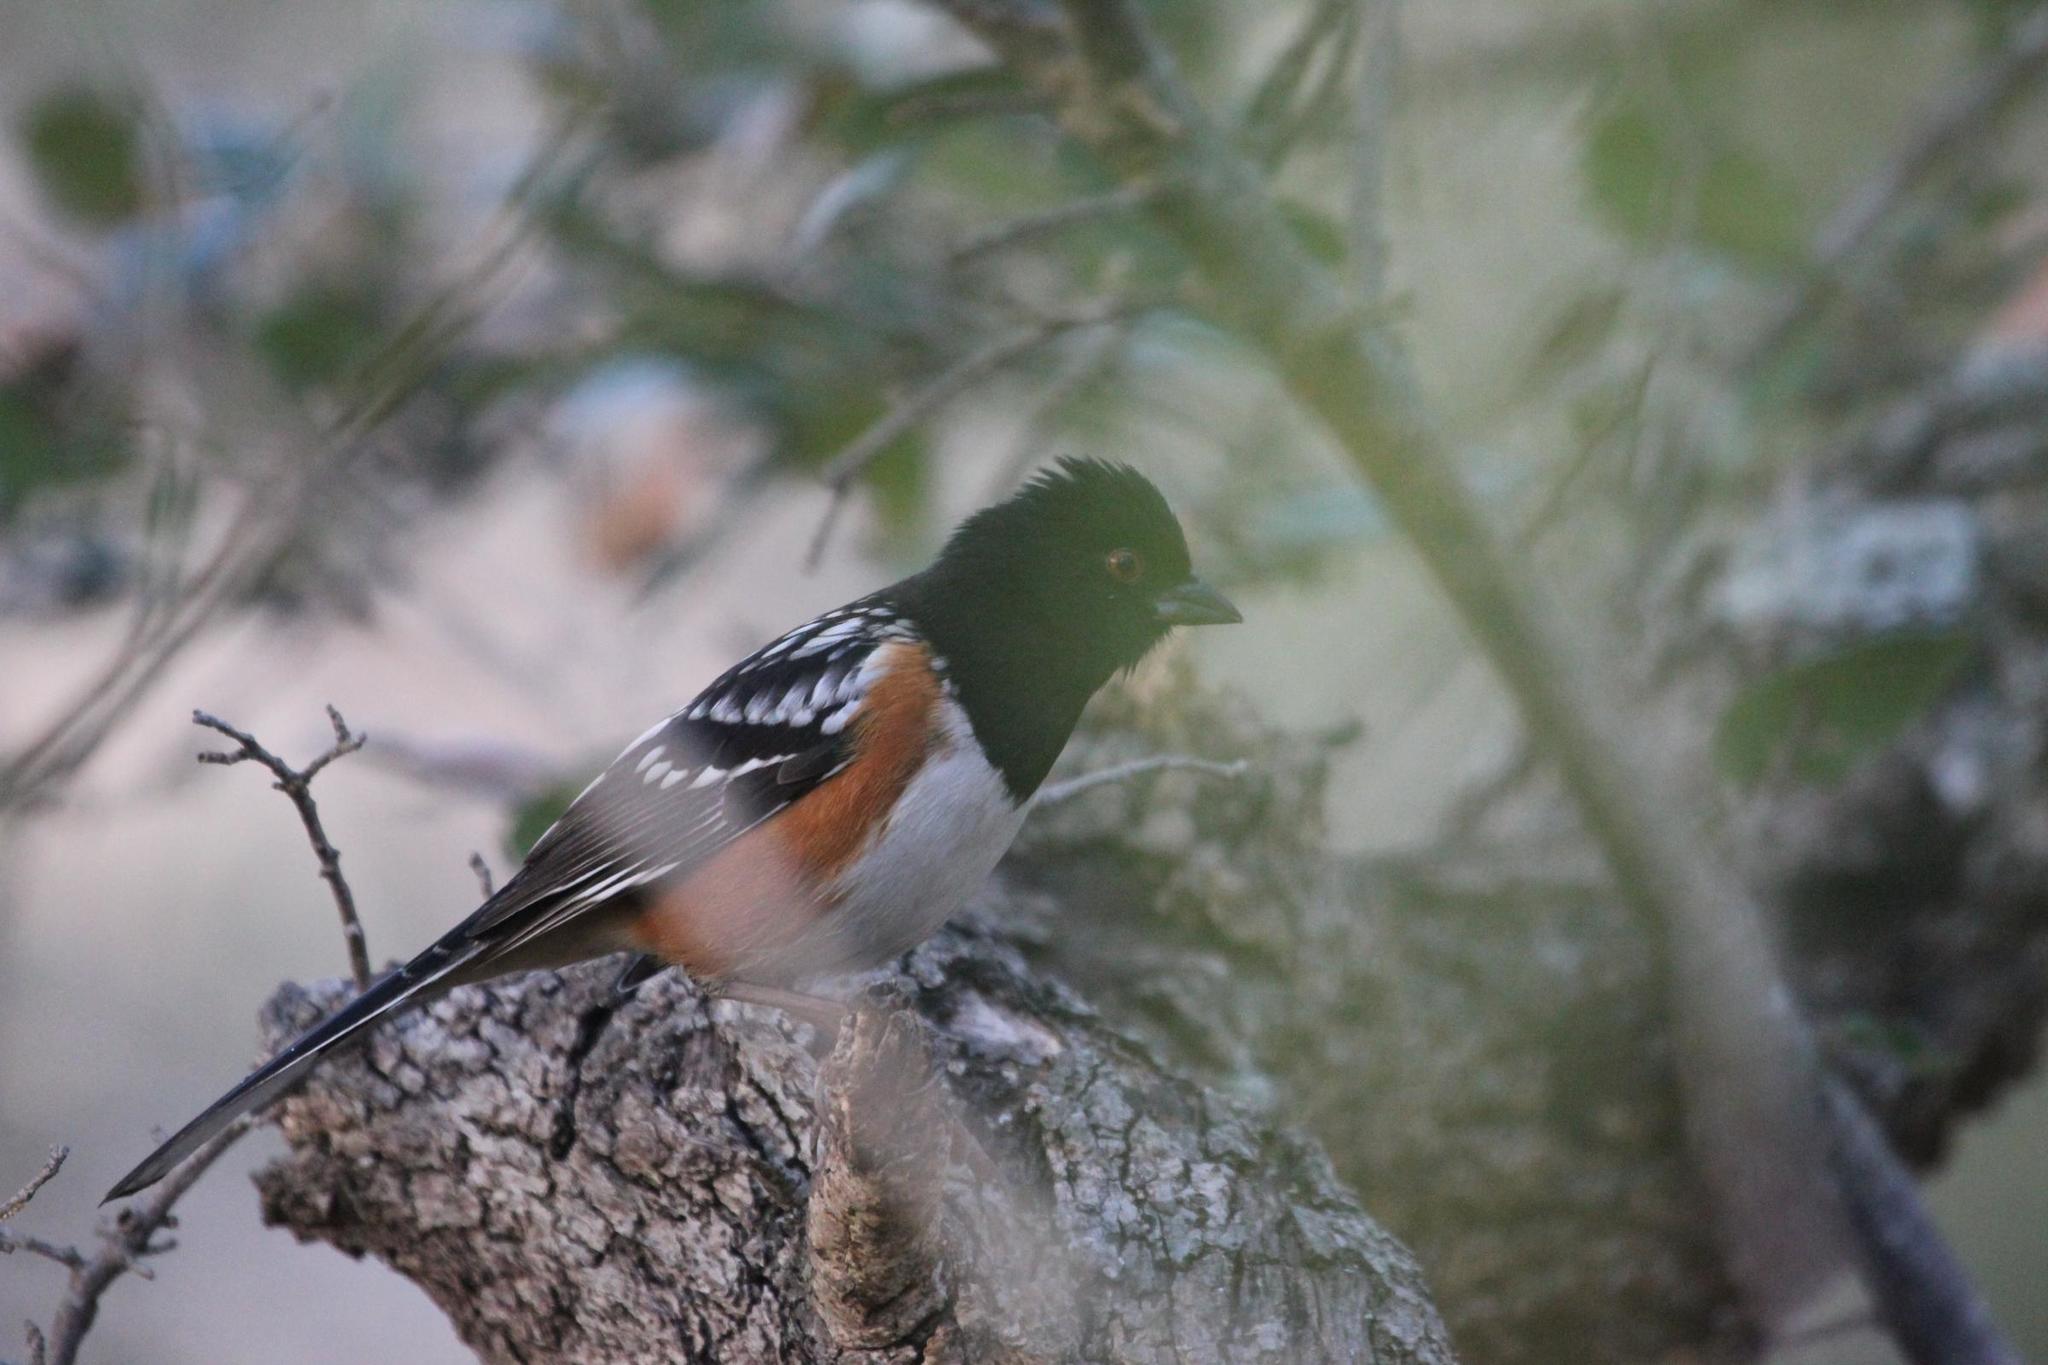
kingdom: Animalia
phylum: Chordata
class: Aves
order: Passeriformes
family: Passerellidae
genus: Pipilo
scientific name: Pipilo maculatus
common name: Spotted towhee
